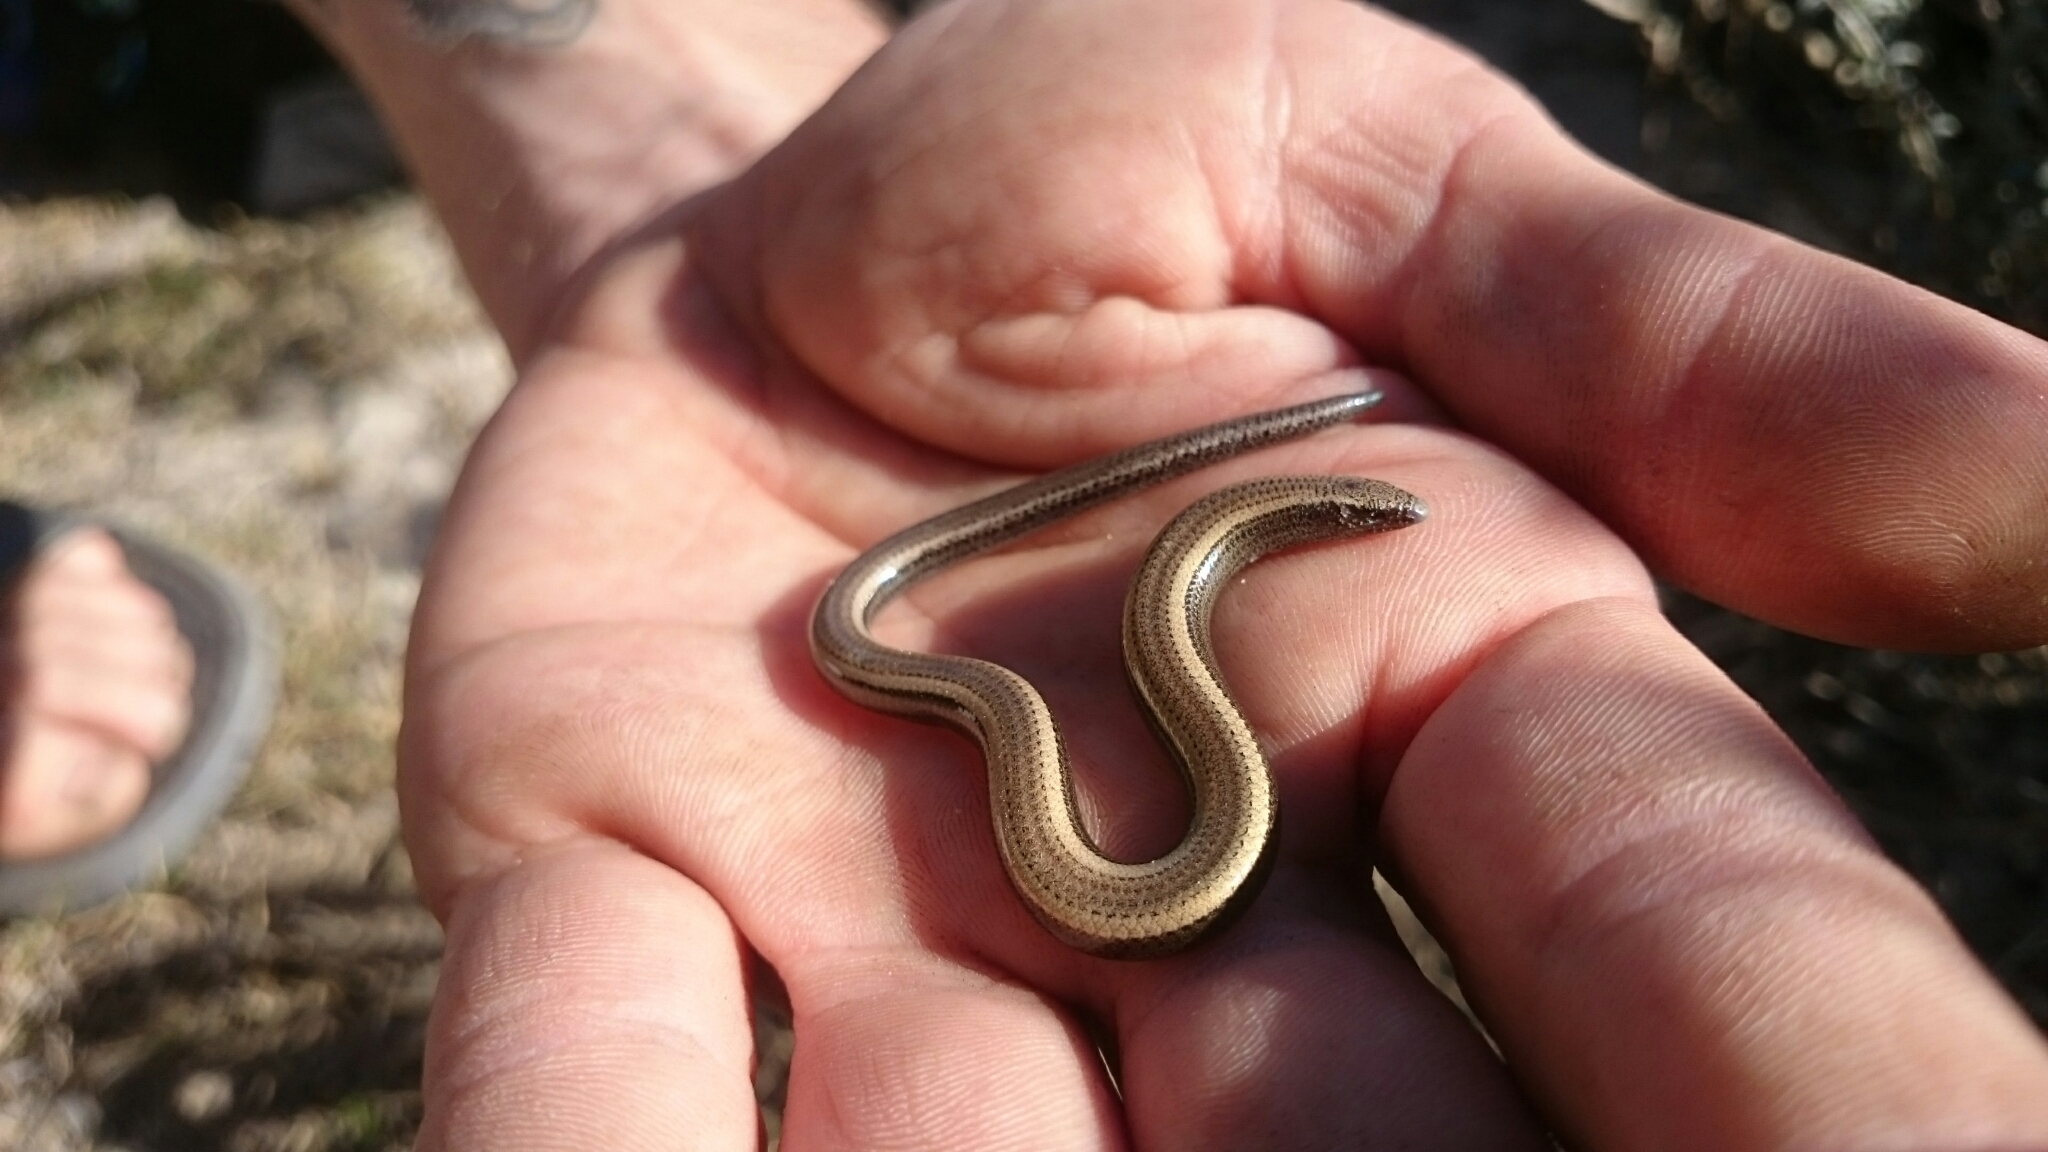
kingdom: Animalia
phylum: Chordata
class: Squamata
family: Scincidae
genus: Scelotes
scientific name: Scelotes anguineus
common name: Algoa dwarf burrowing skink
